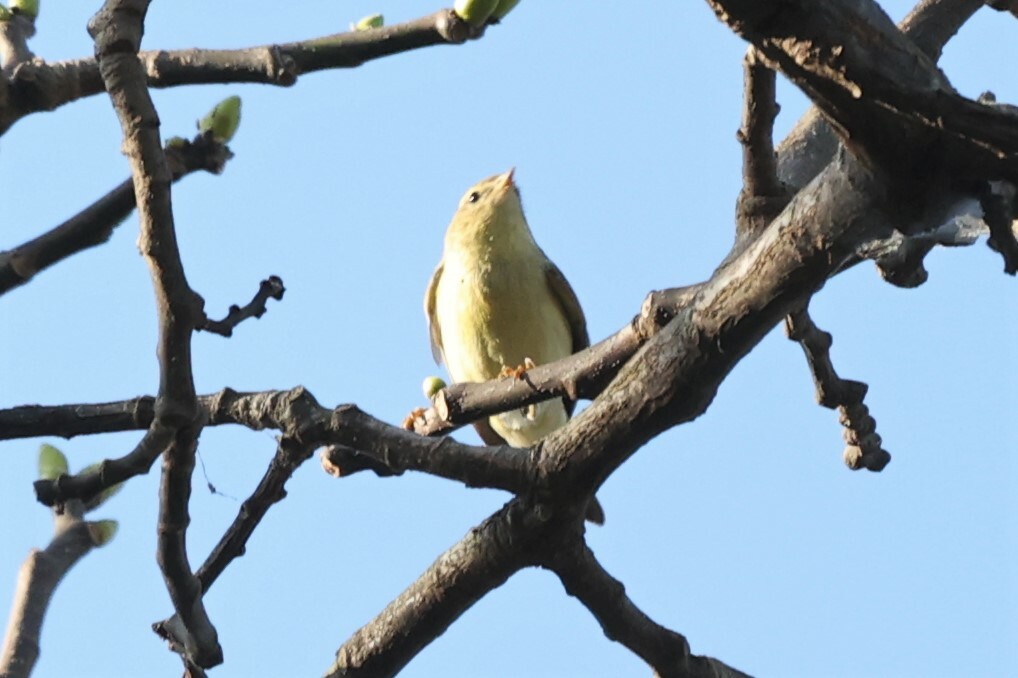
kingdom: Animalia
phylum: Chordata
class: Aves
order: Passeriformes
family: Phylloscopidae
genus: Phylloscopus
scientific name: Phylloscopus trochilus
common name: Willow warbler
